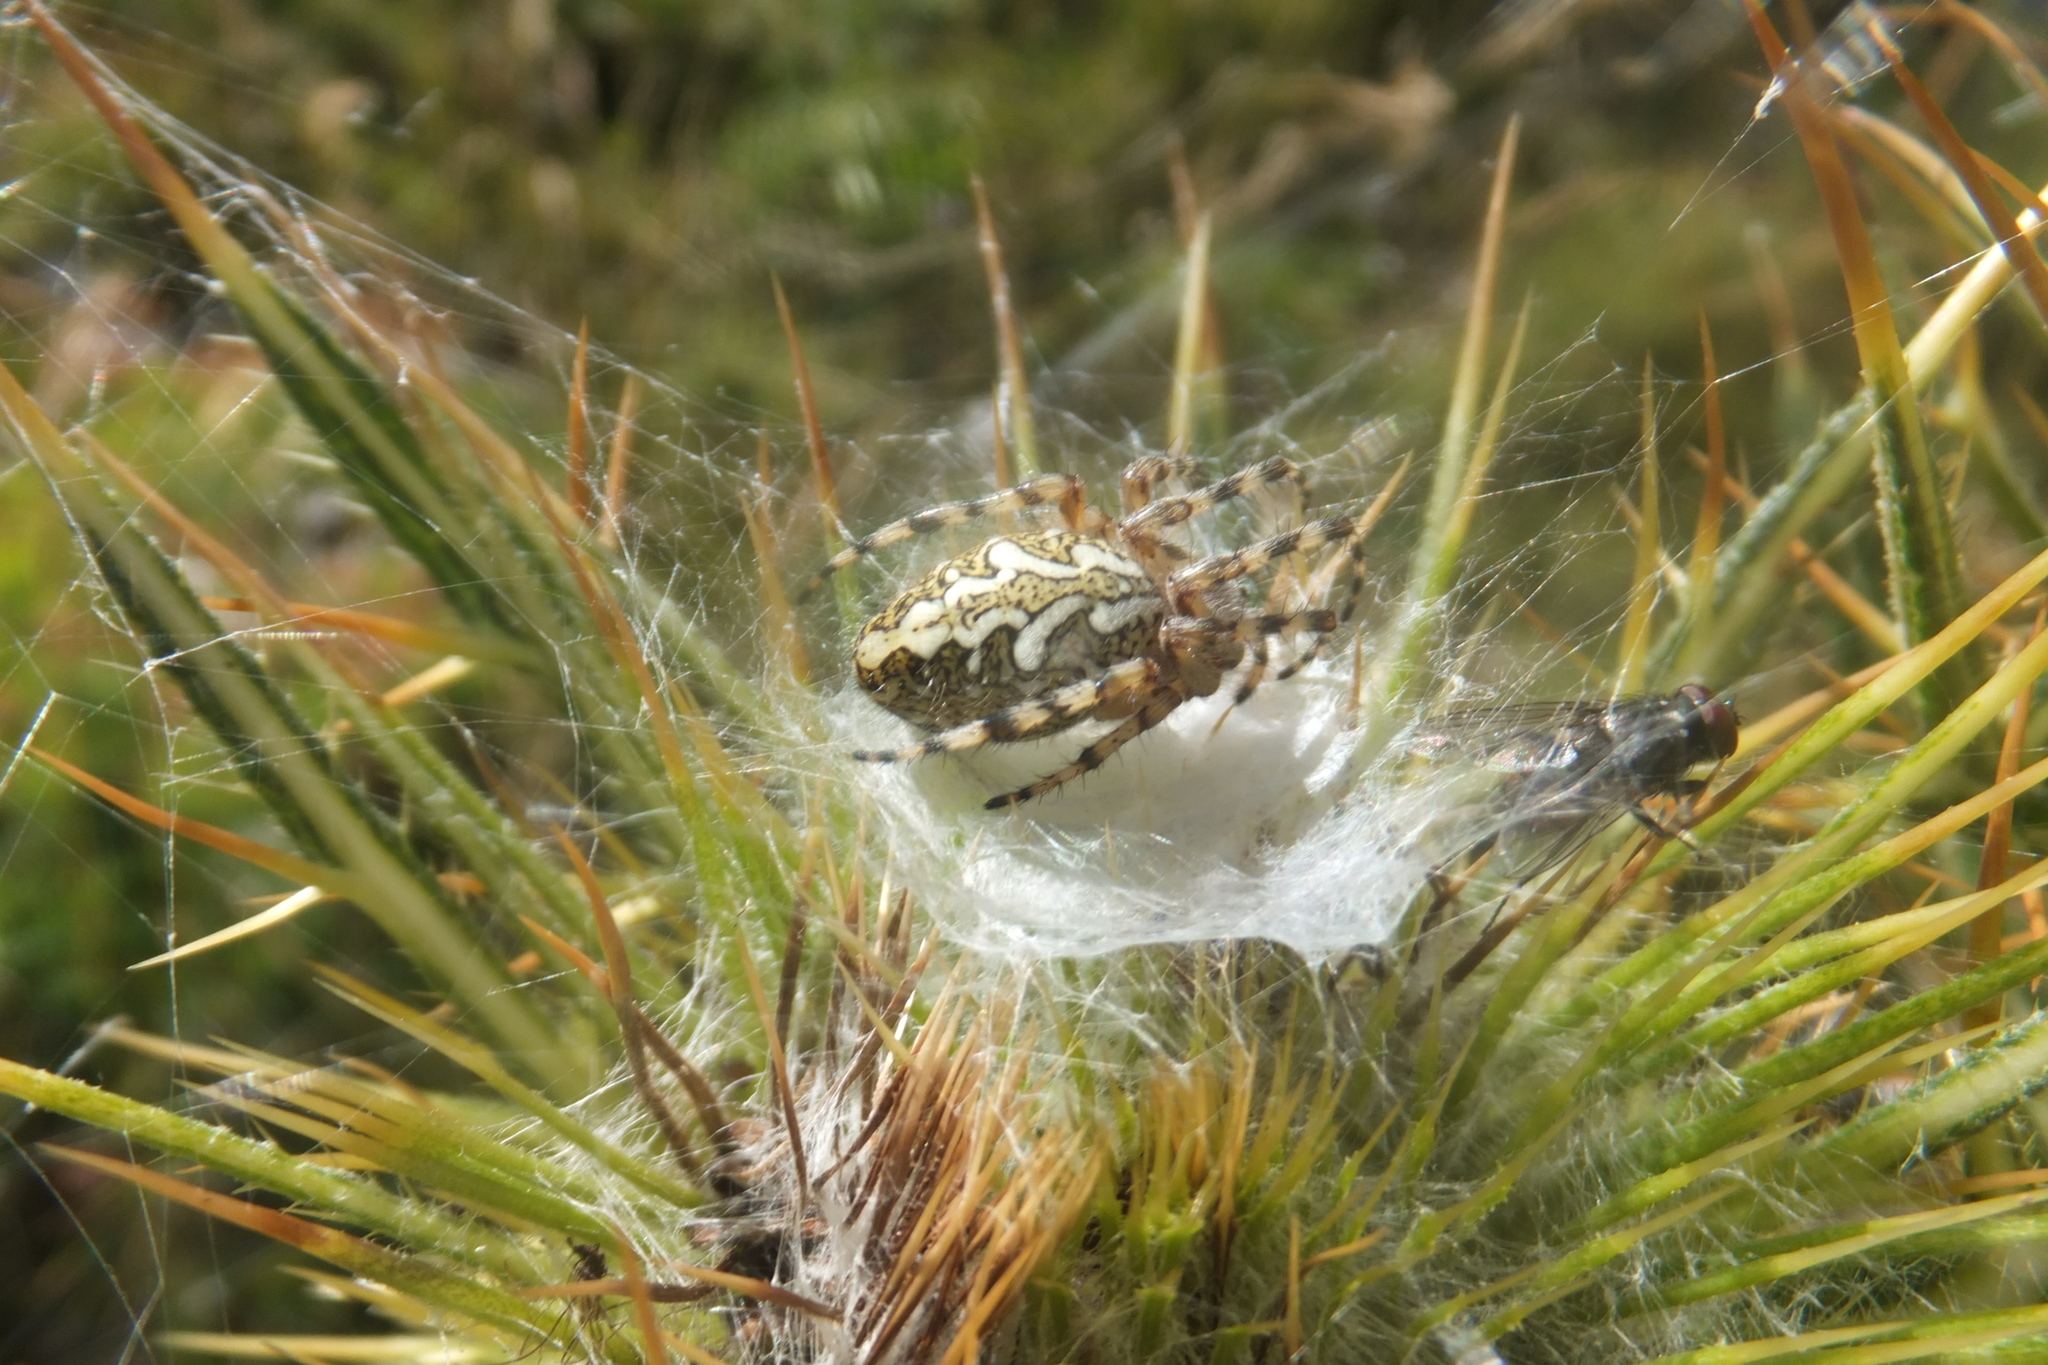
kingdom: Animalia
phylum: Arthropoda
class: Arachnida
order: Araneae
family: Araneidae
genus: Aculepeira
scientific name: Aculepeira ceropegia
